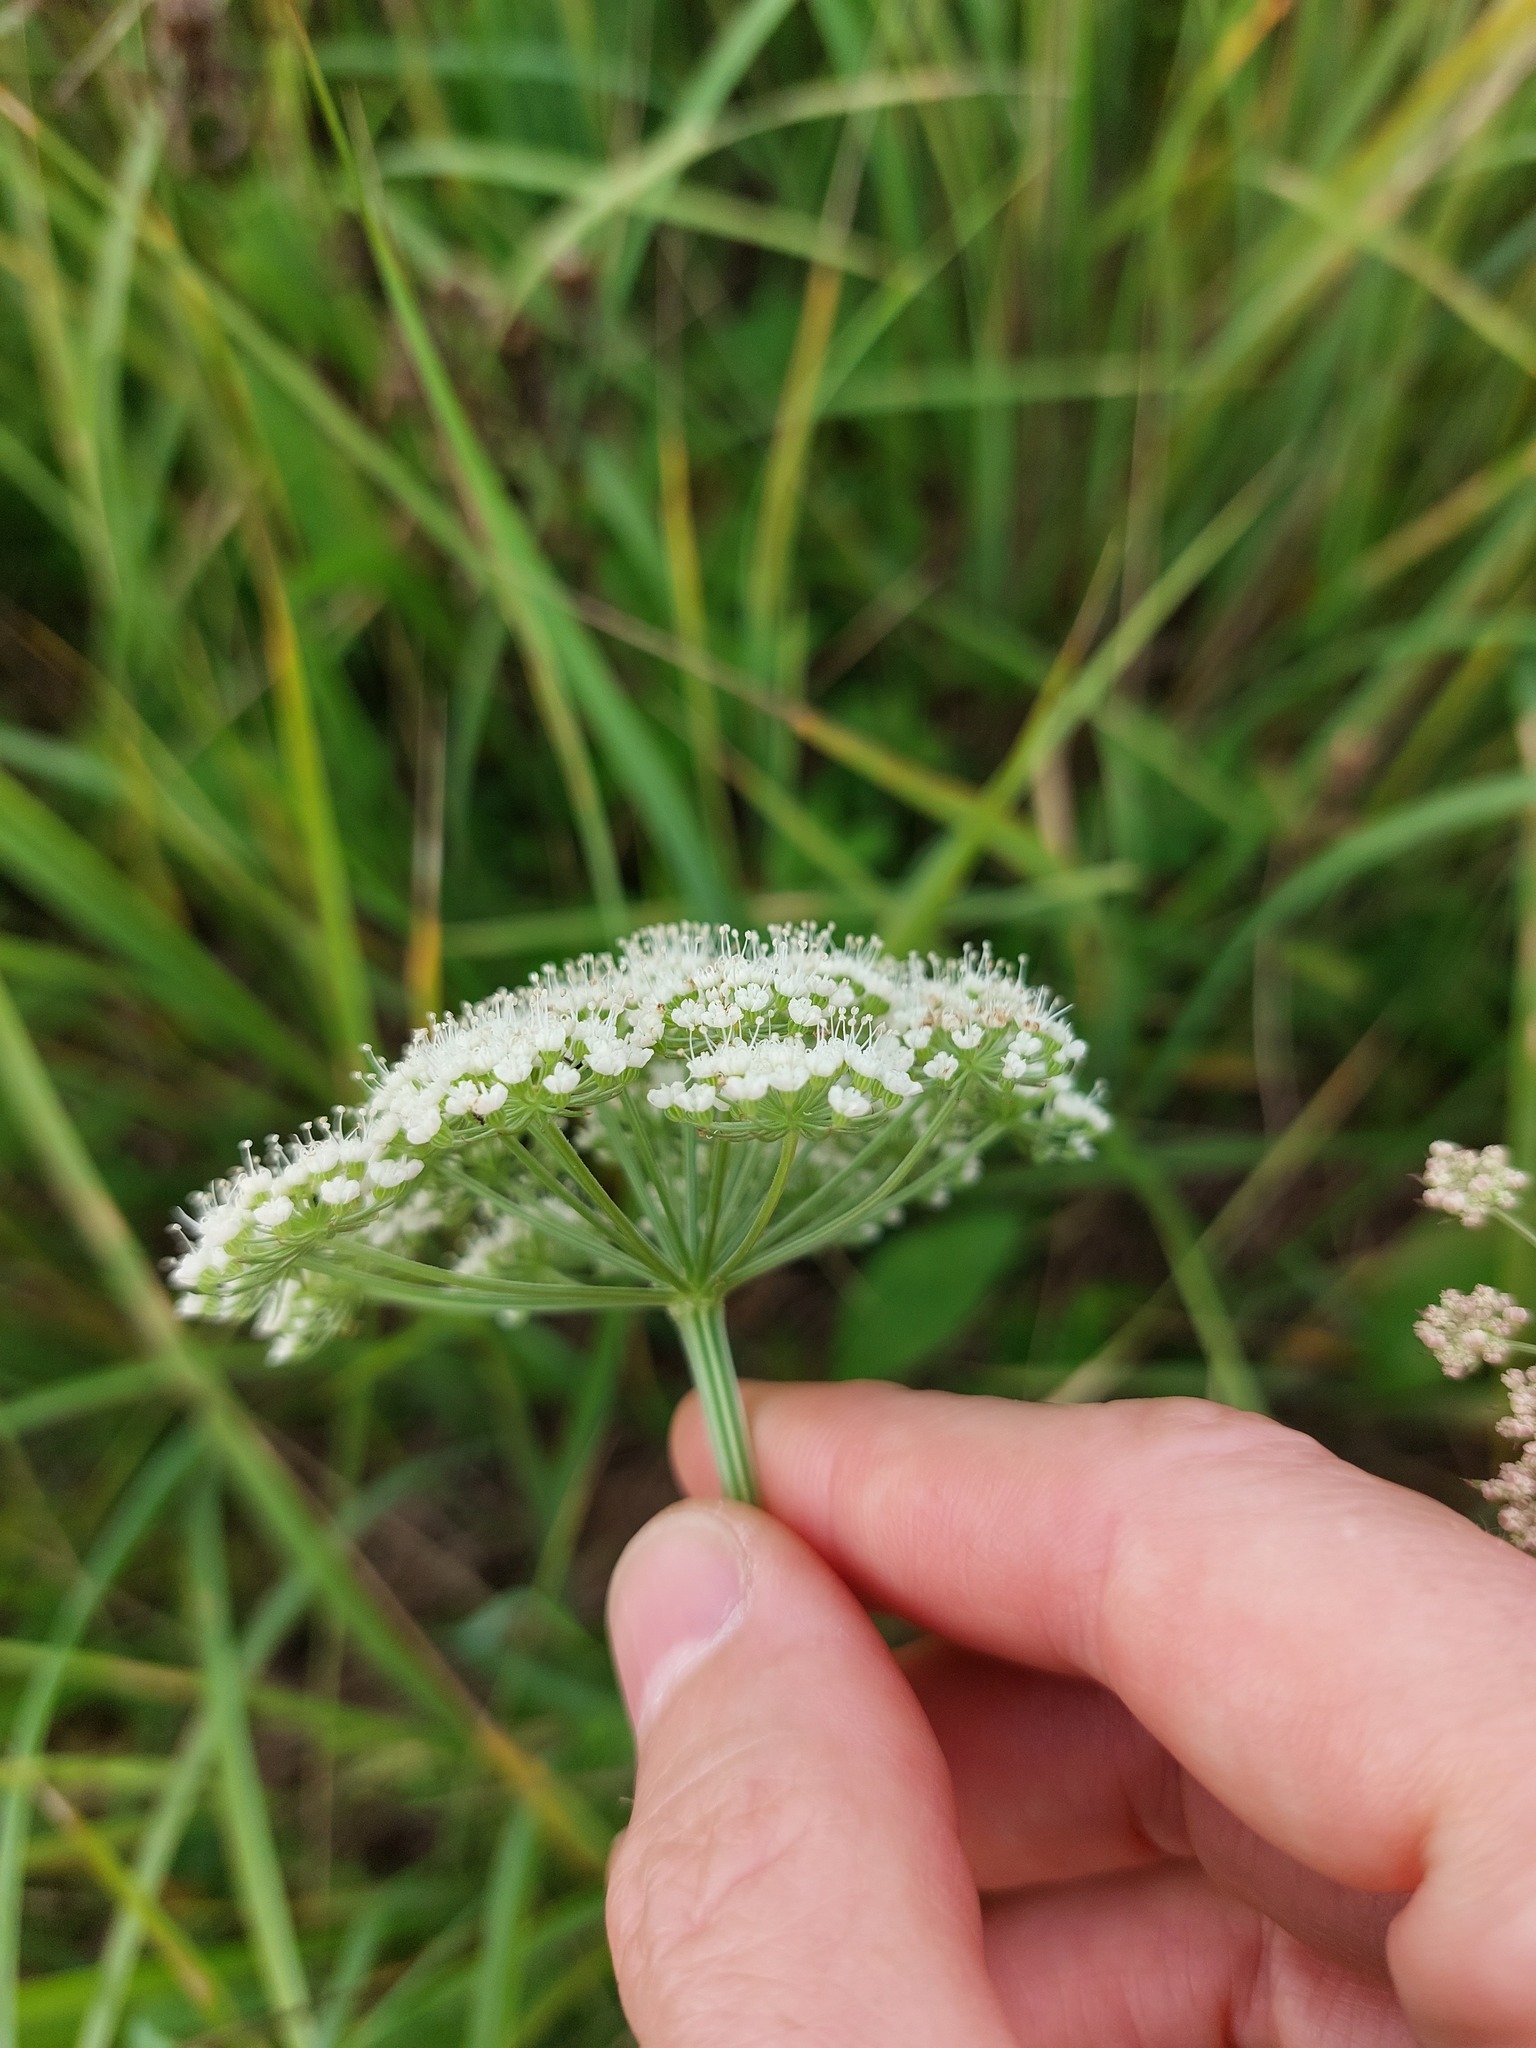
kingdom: Plantae
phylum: Tracheophyta
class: Magnoliopsida
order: Apiales
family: Apiaceae
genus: Selinum
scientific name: Selinum carvifolia
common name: Cambridge milk-parsley
